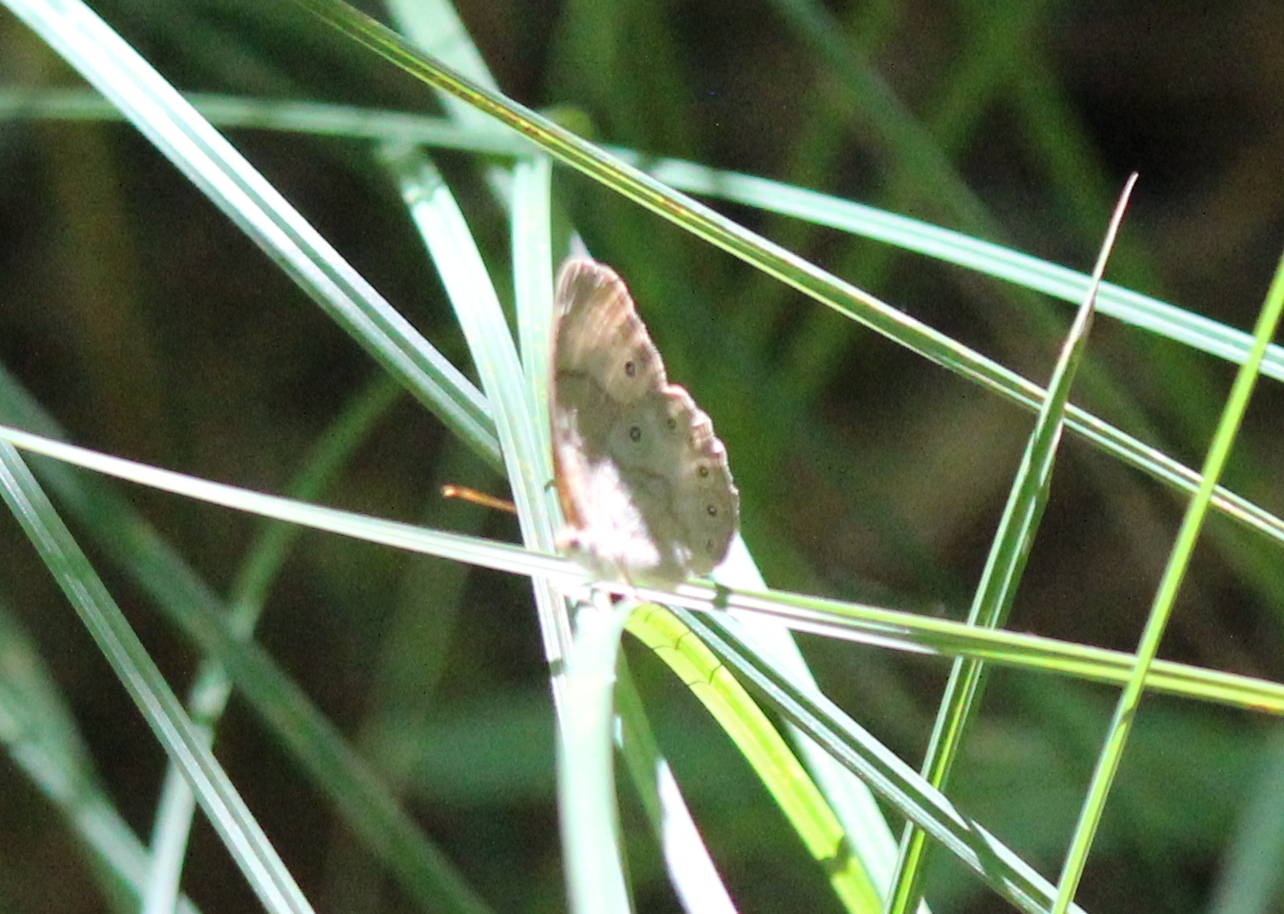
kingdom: Animalia
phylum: Arthropoda
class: Insecta
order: Lepidoptera
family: Nymphalidae
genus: Lethe
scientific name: Lethe eurydice
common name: Eyed brown
